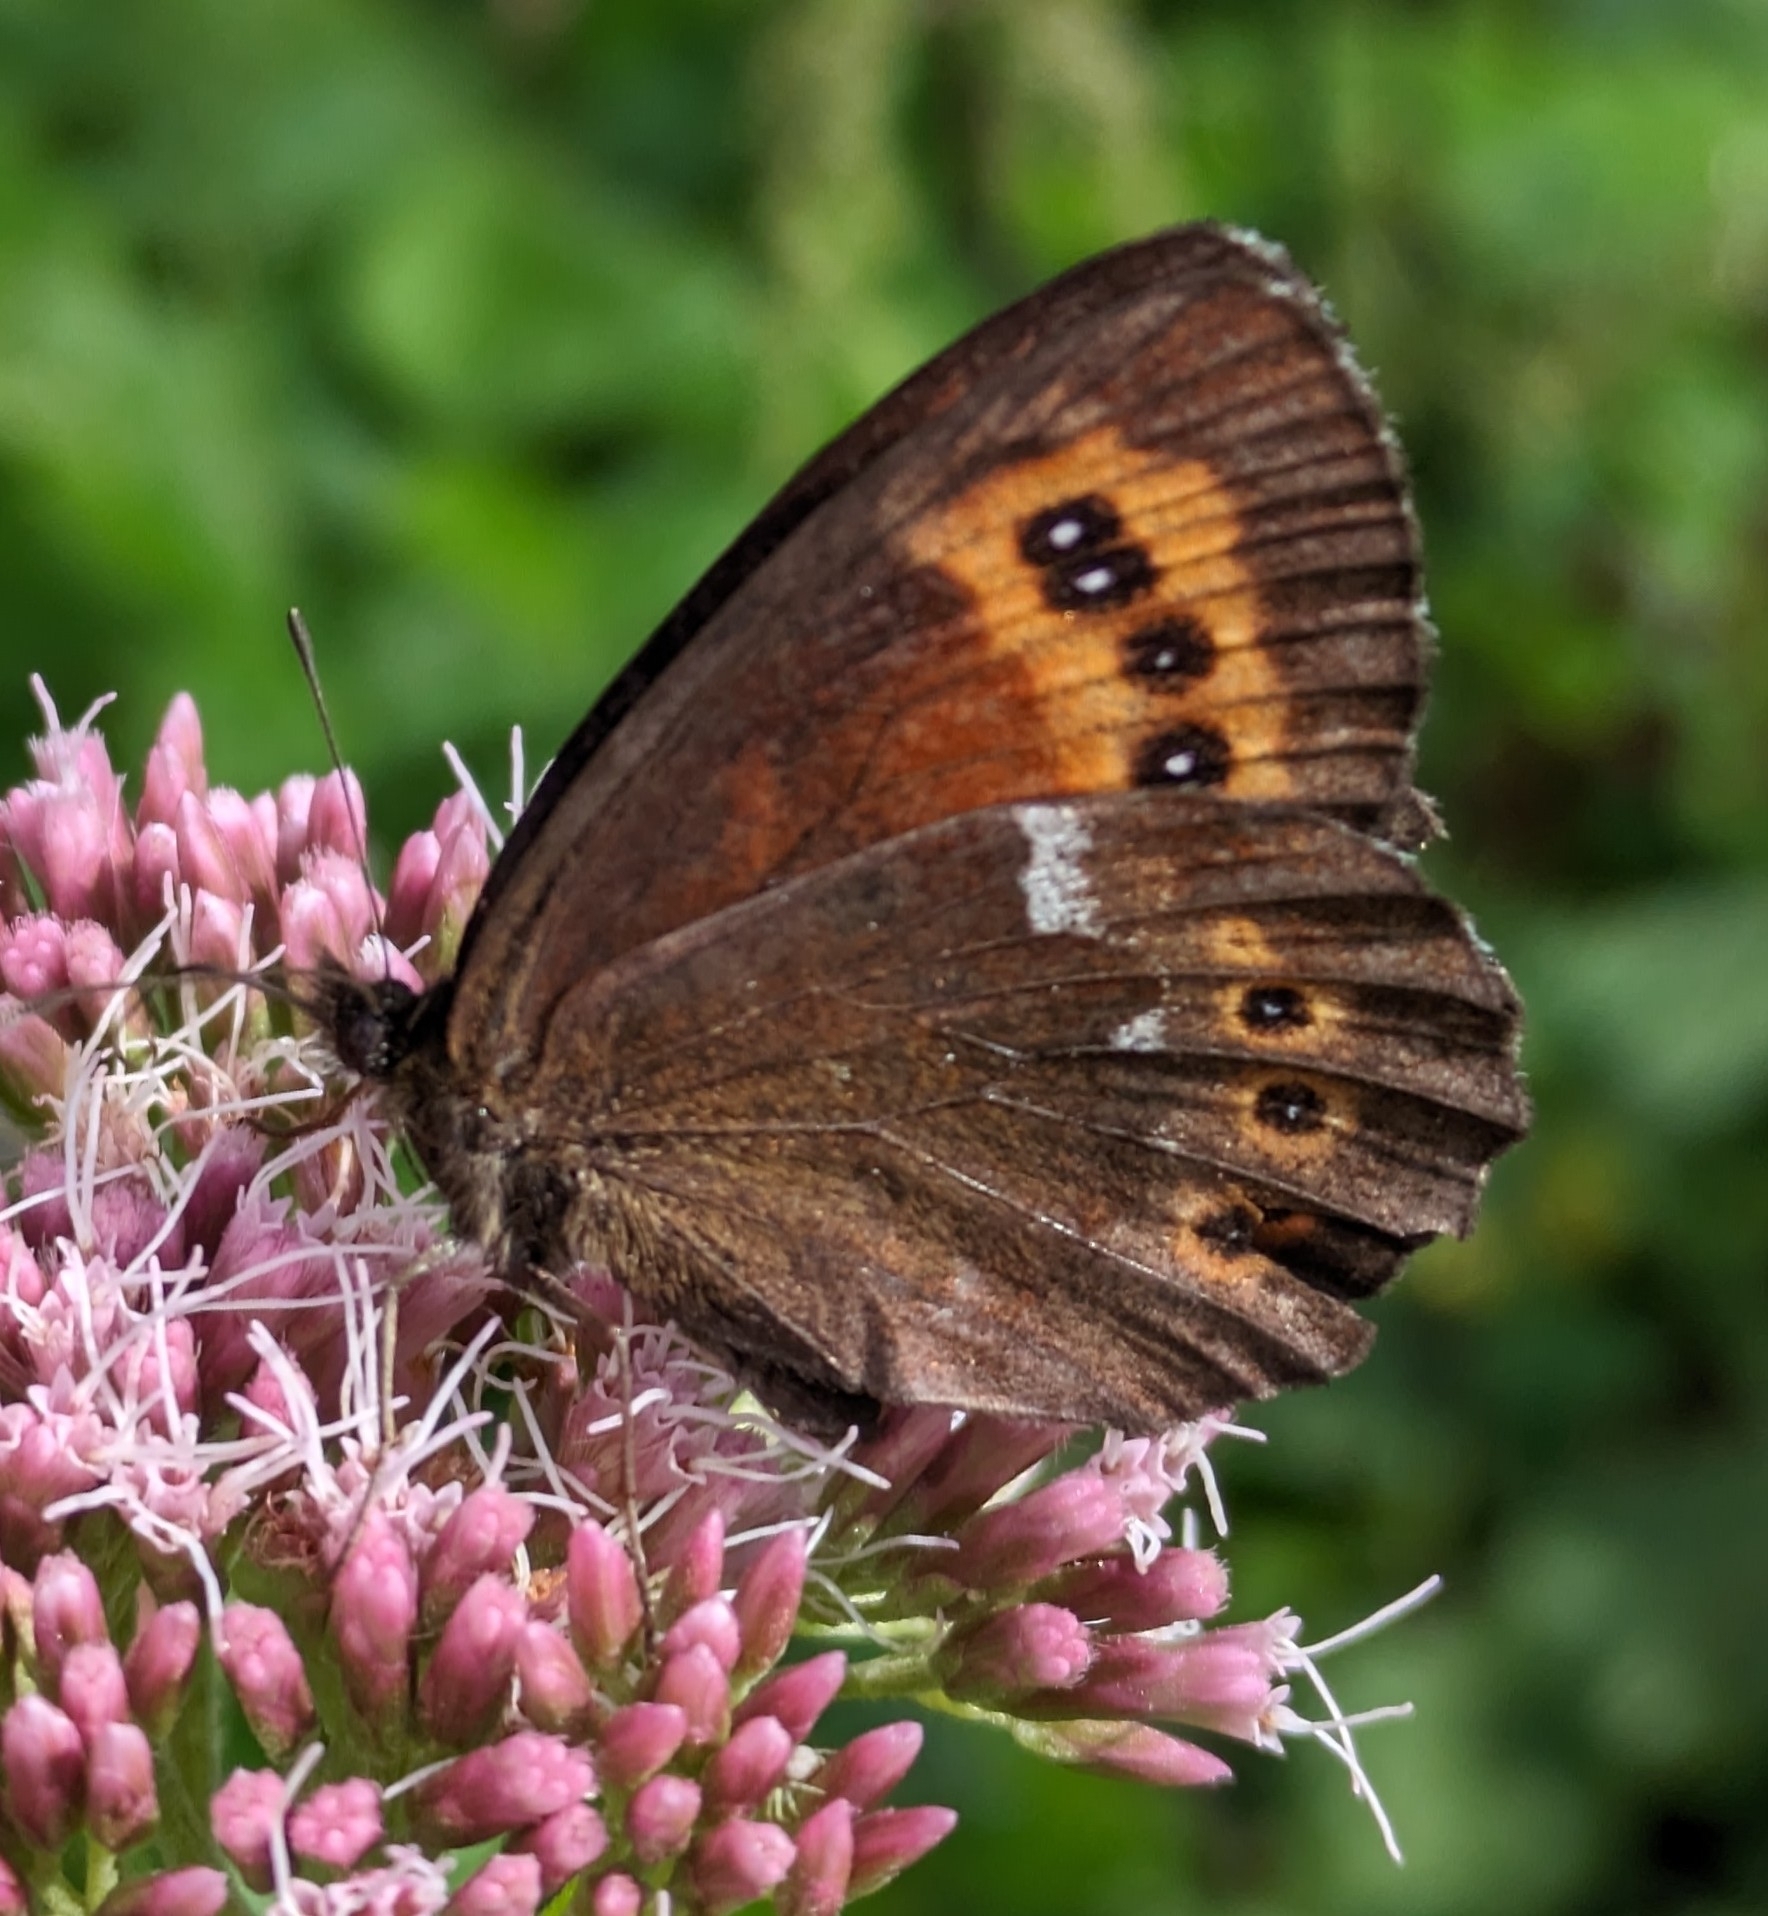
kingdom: Animalia
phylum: Arthropoda
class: Insecta
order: Lepidoptera
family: Nymphalidae
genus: Erebia
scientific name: Erebia ligea
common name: Arran brown
